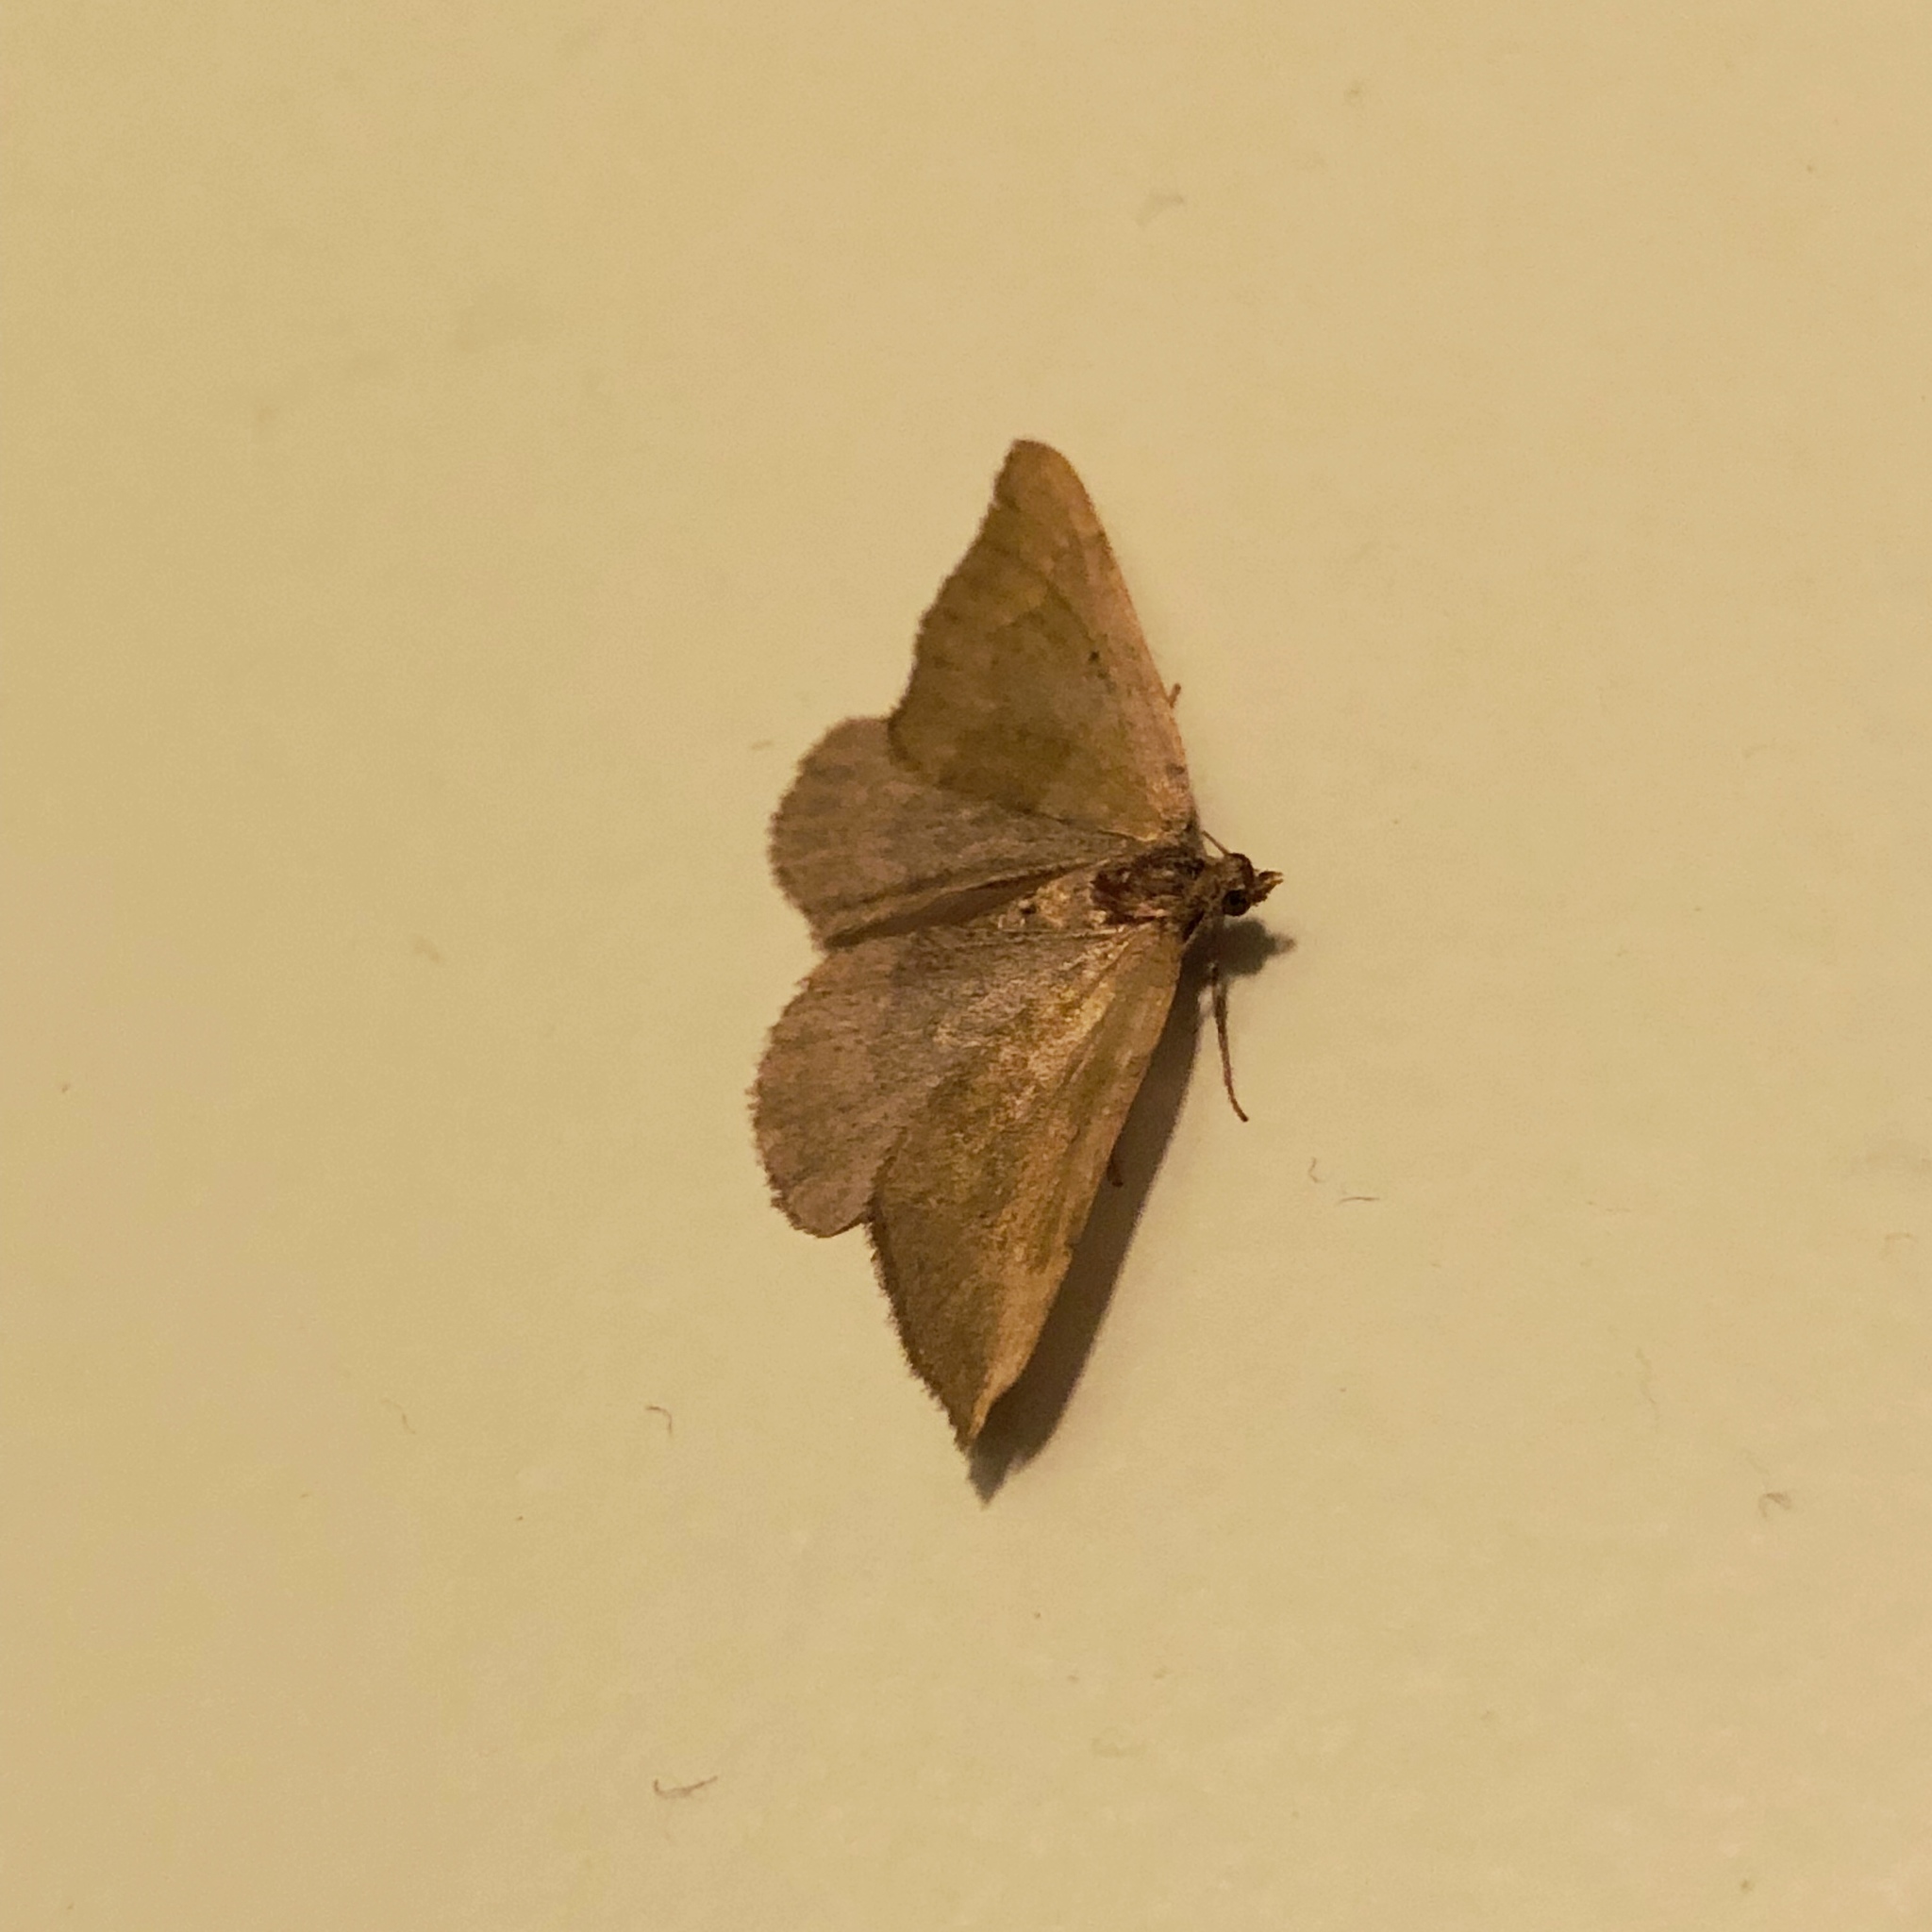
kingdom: Animalia
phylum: Arthropoda
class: Insecta
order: Lepidoptera
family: Geometridae
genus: Epyaxa
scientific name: Epyaxa rosearia
